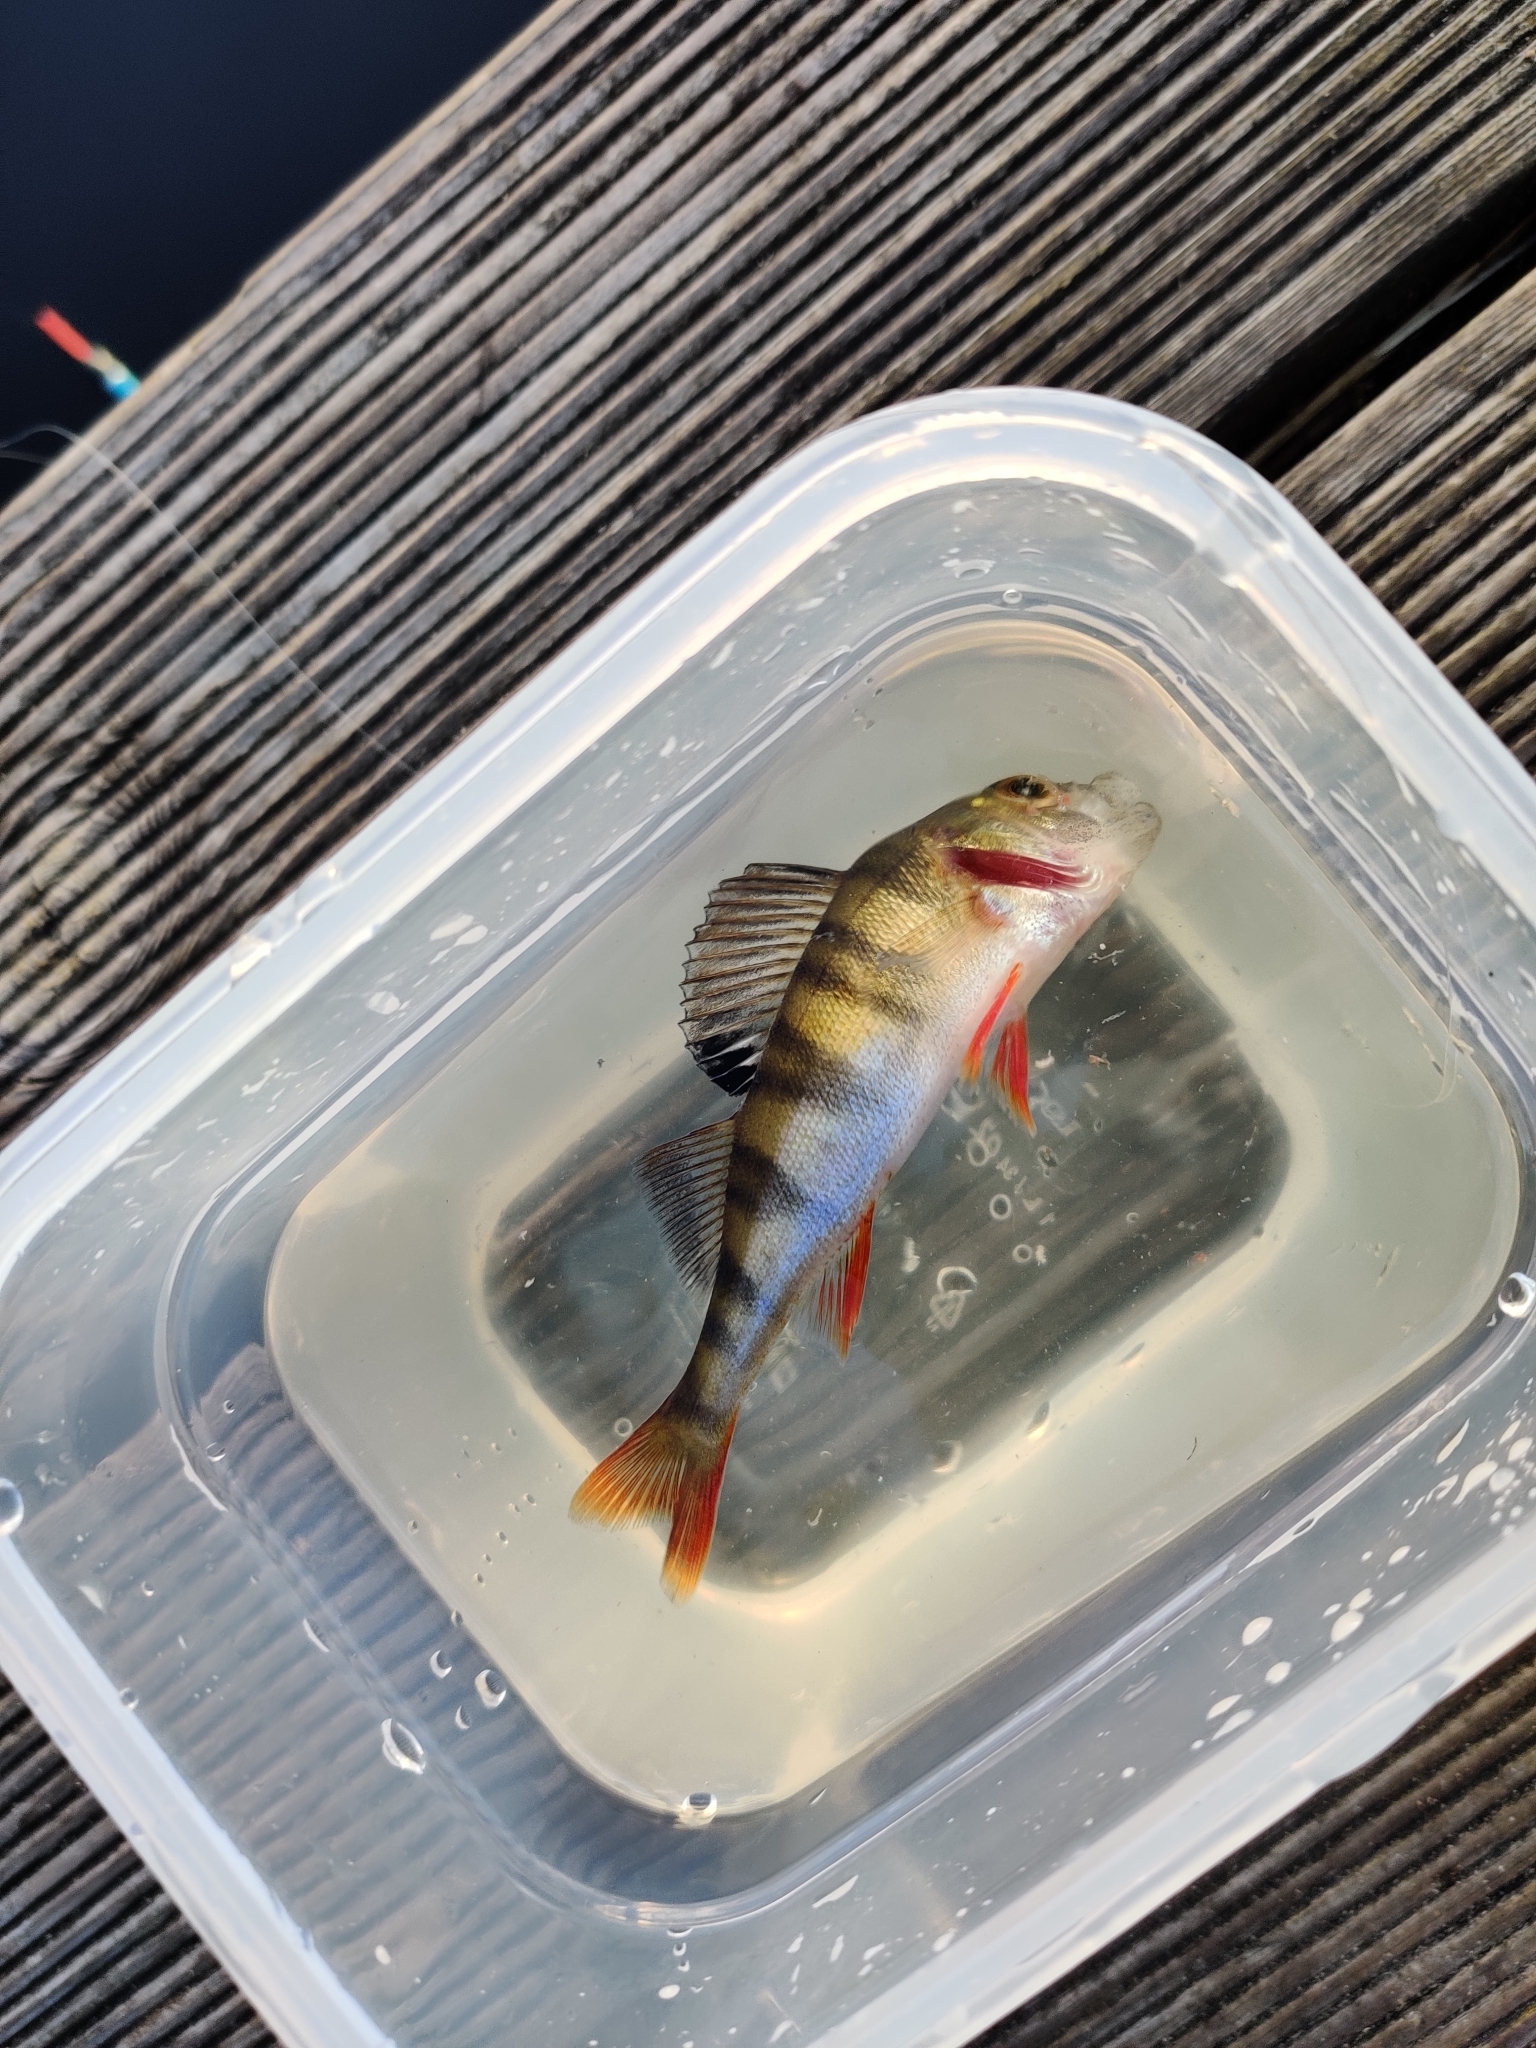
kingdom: Animalia
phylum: Chordata
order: Perciformes
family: Percidae
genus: Perca
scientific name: Perca fluviatilis
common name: Perch
